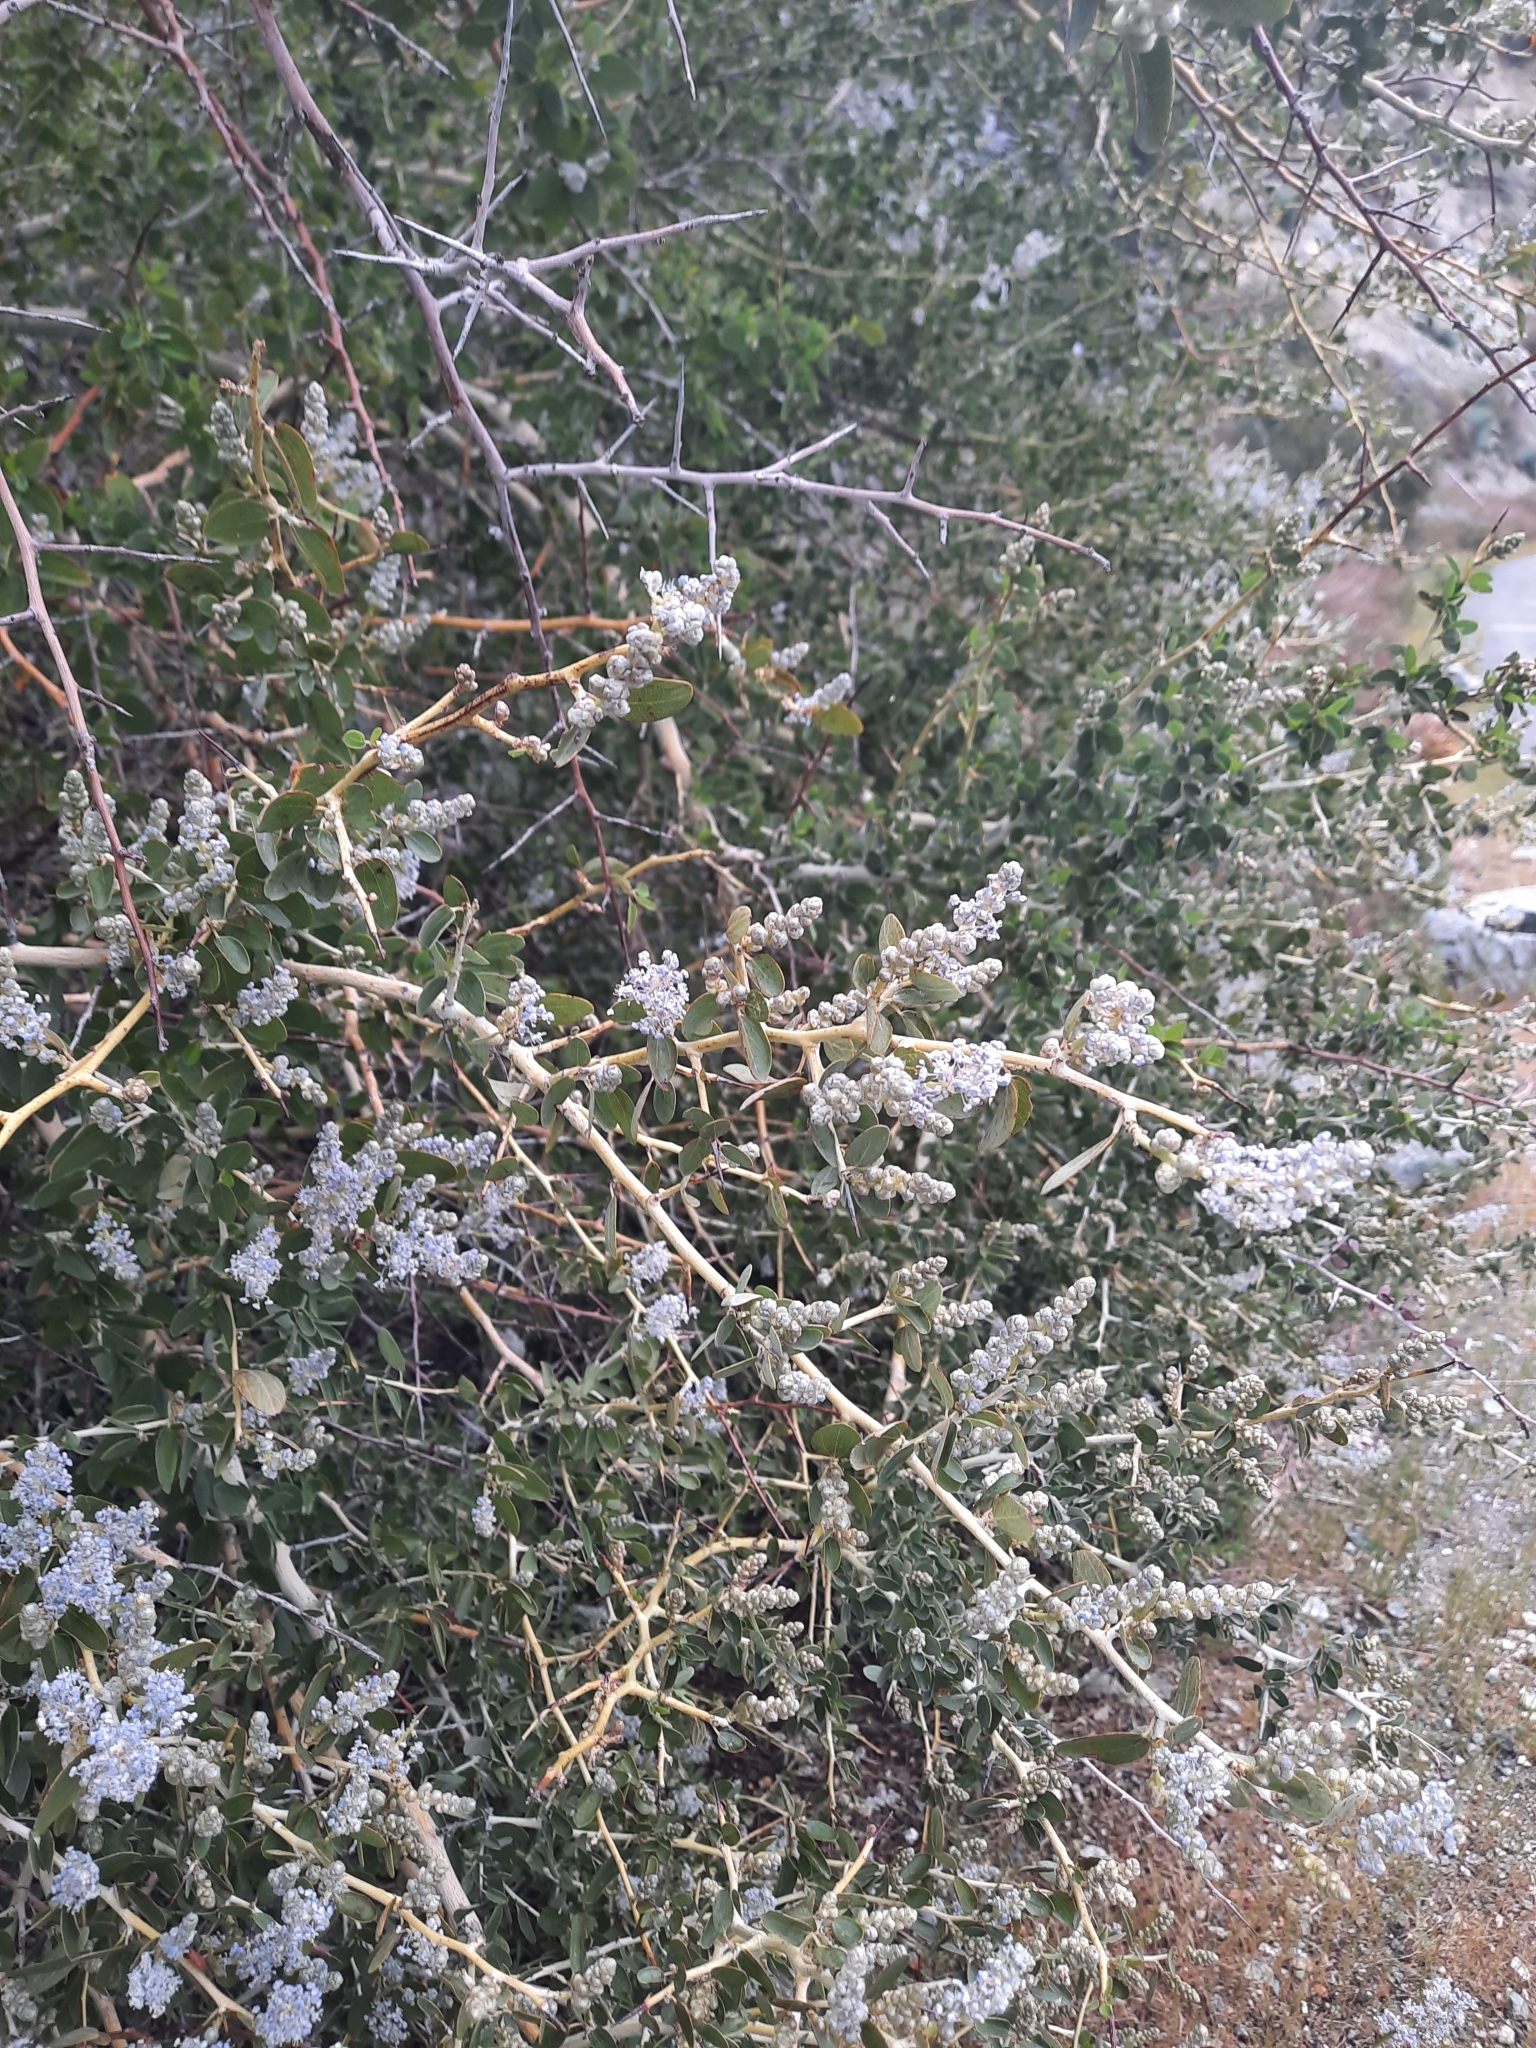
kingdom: Plantae
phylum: Tracheophyta
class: Magnoliopsida
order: Rosales
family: Rhamnaceae
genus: Ceanothus
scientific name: Ceanothus leucodermis
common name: Chaparral whitethorn
